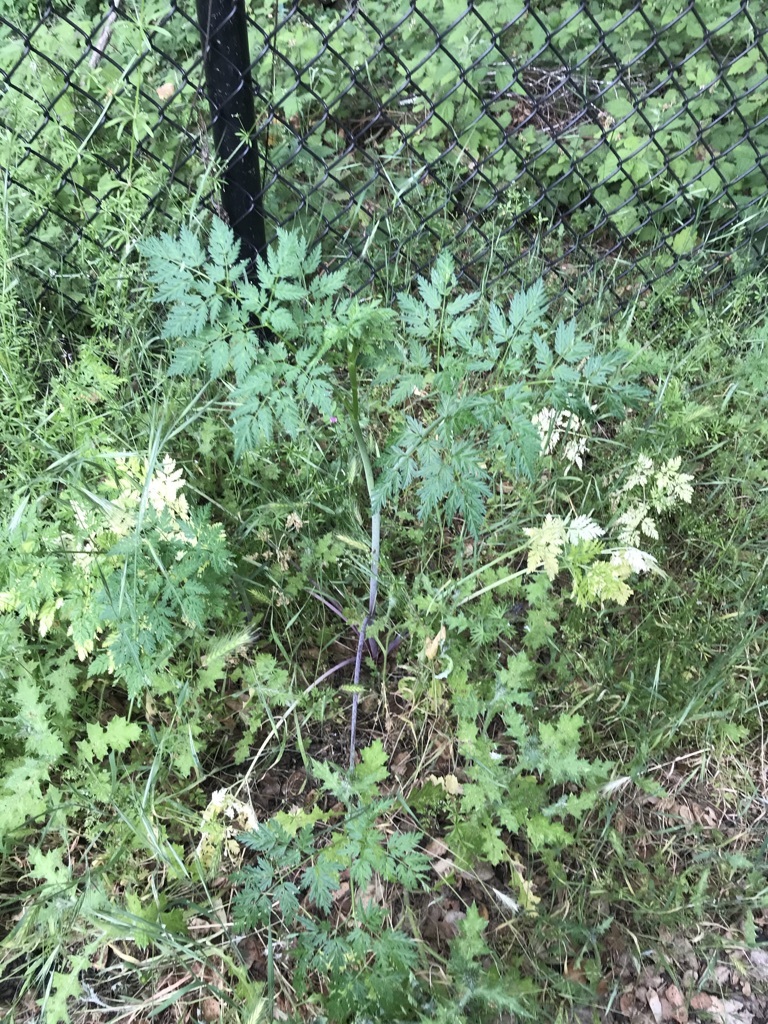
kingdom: Plantae
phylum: Tracheophyta
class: Magnoliopsida
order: Apiales
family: Apiaceae
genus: Conium
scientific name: Conium maculatum
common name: Hemlock
